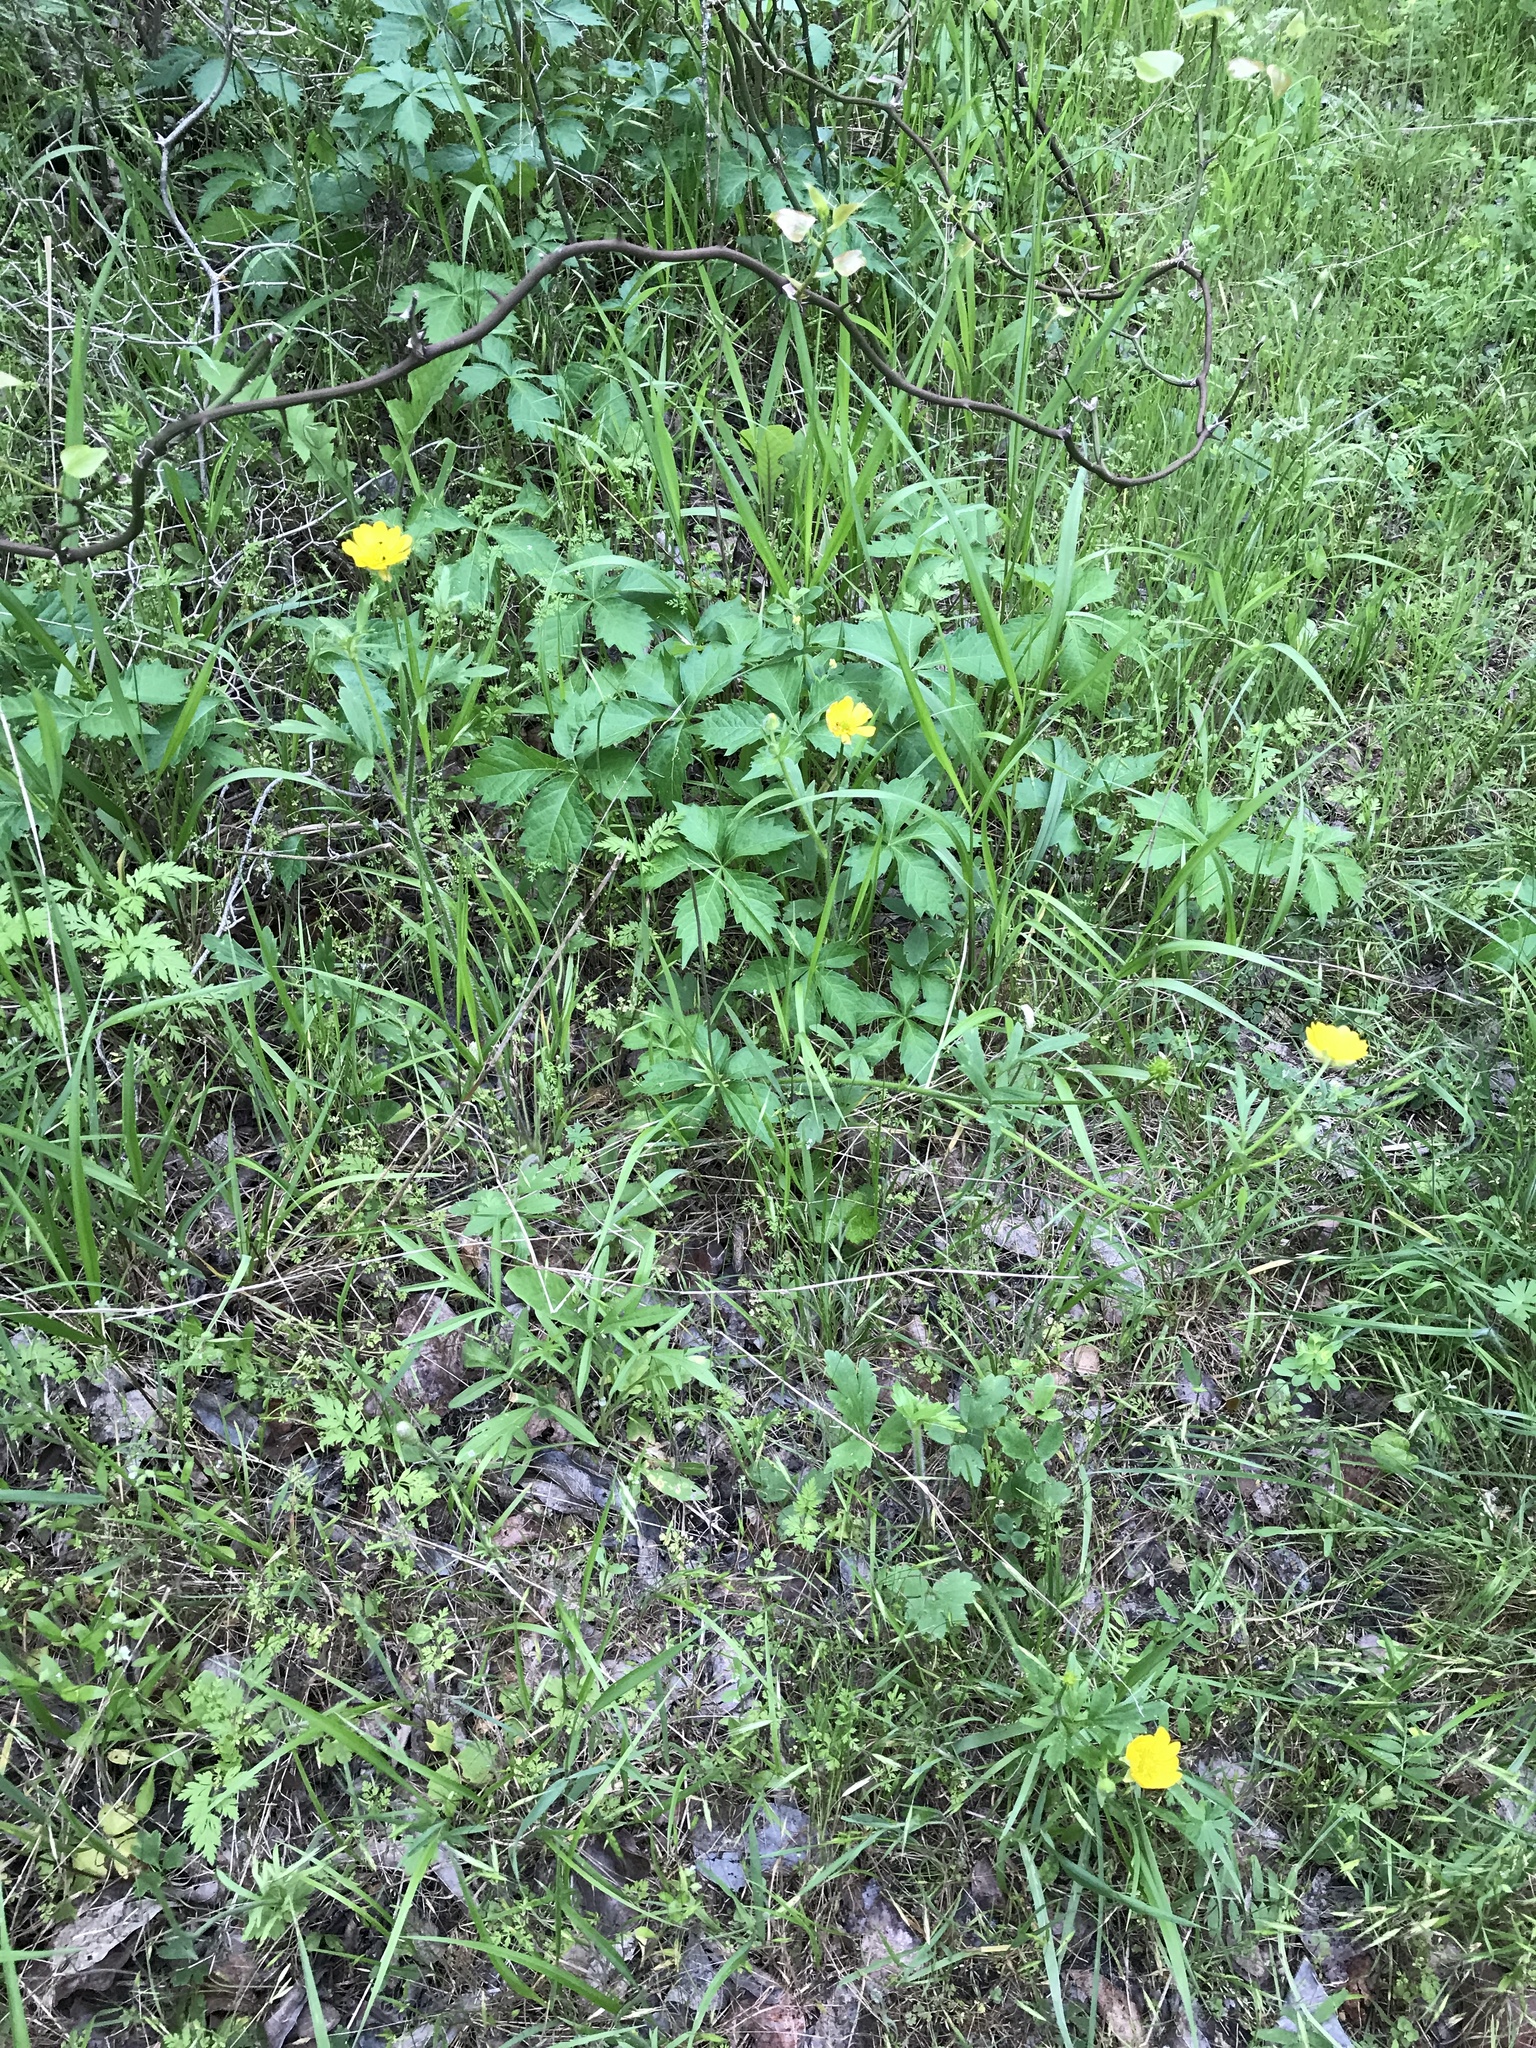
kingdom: Plantae
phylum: Tracheophyta
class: Magnoliopsida
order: Ranunculales
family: Ranunculaceae
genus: Ranunculus
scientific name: Ranunculus macranthus
